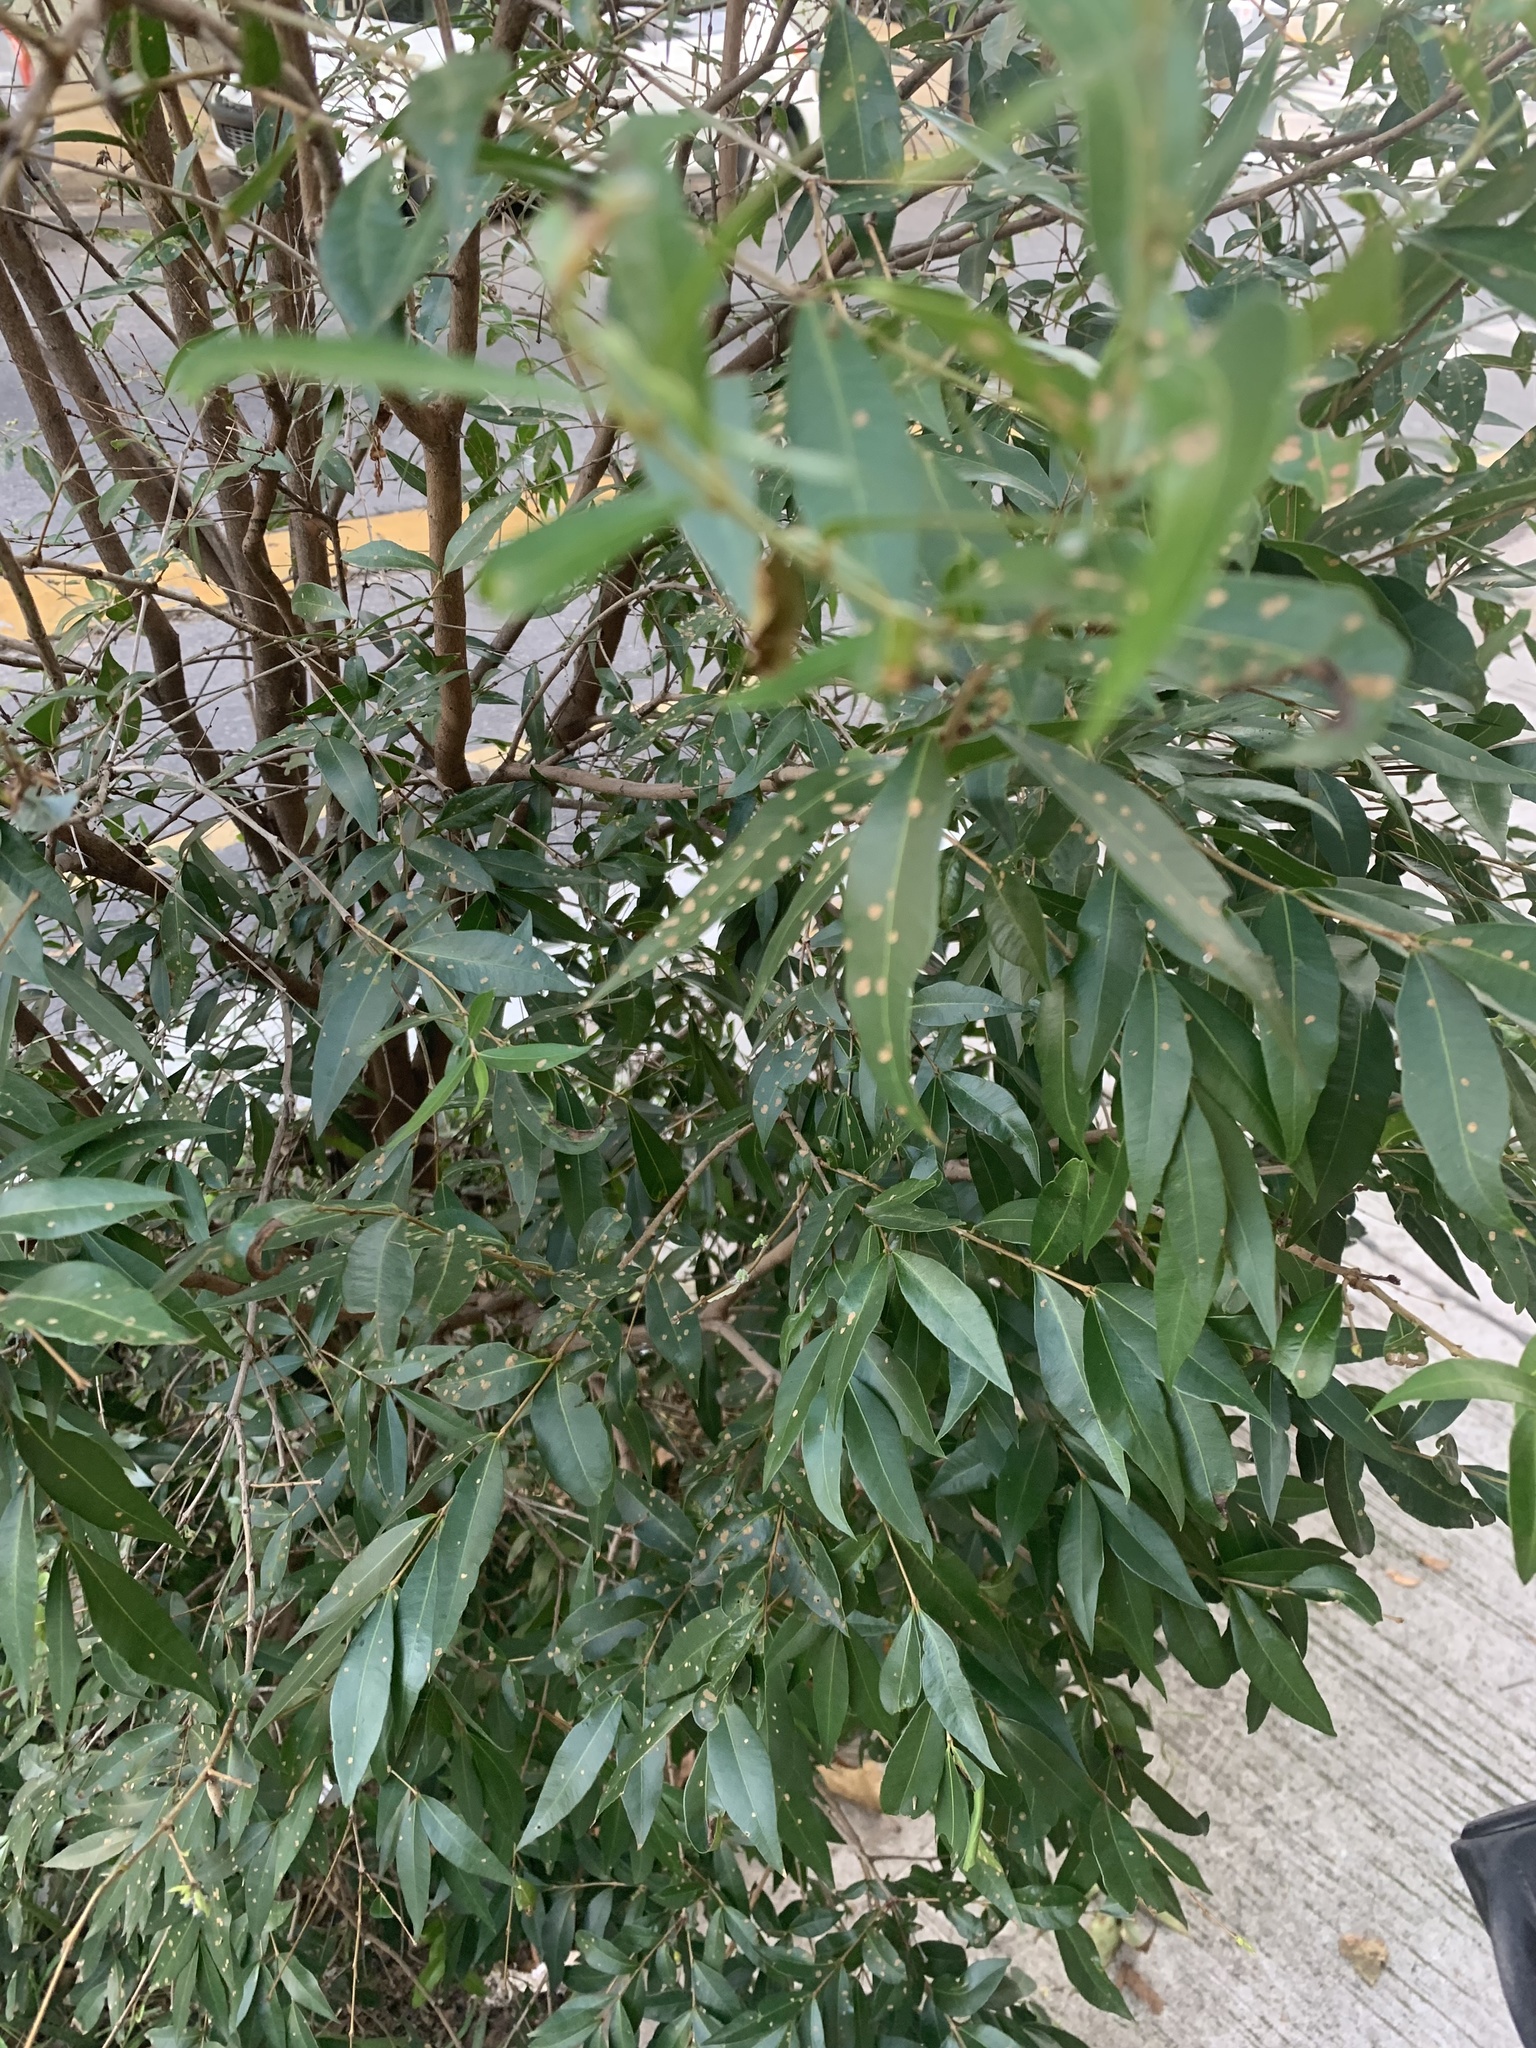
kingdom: Plantae
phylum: Tracheophyta
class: Magnoliopsida
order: Myrtales
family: Myrtaceae
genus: Blepharocalyx
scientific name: Blepharocalyx salicifolius
